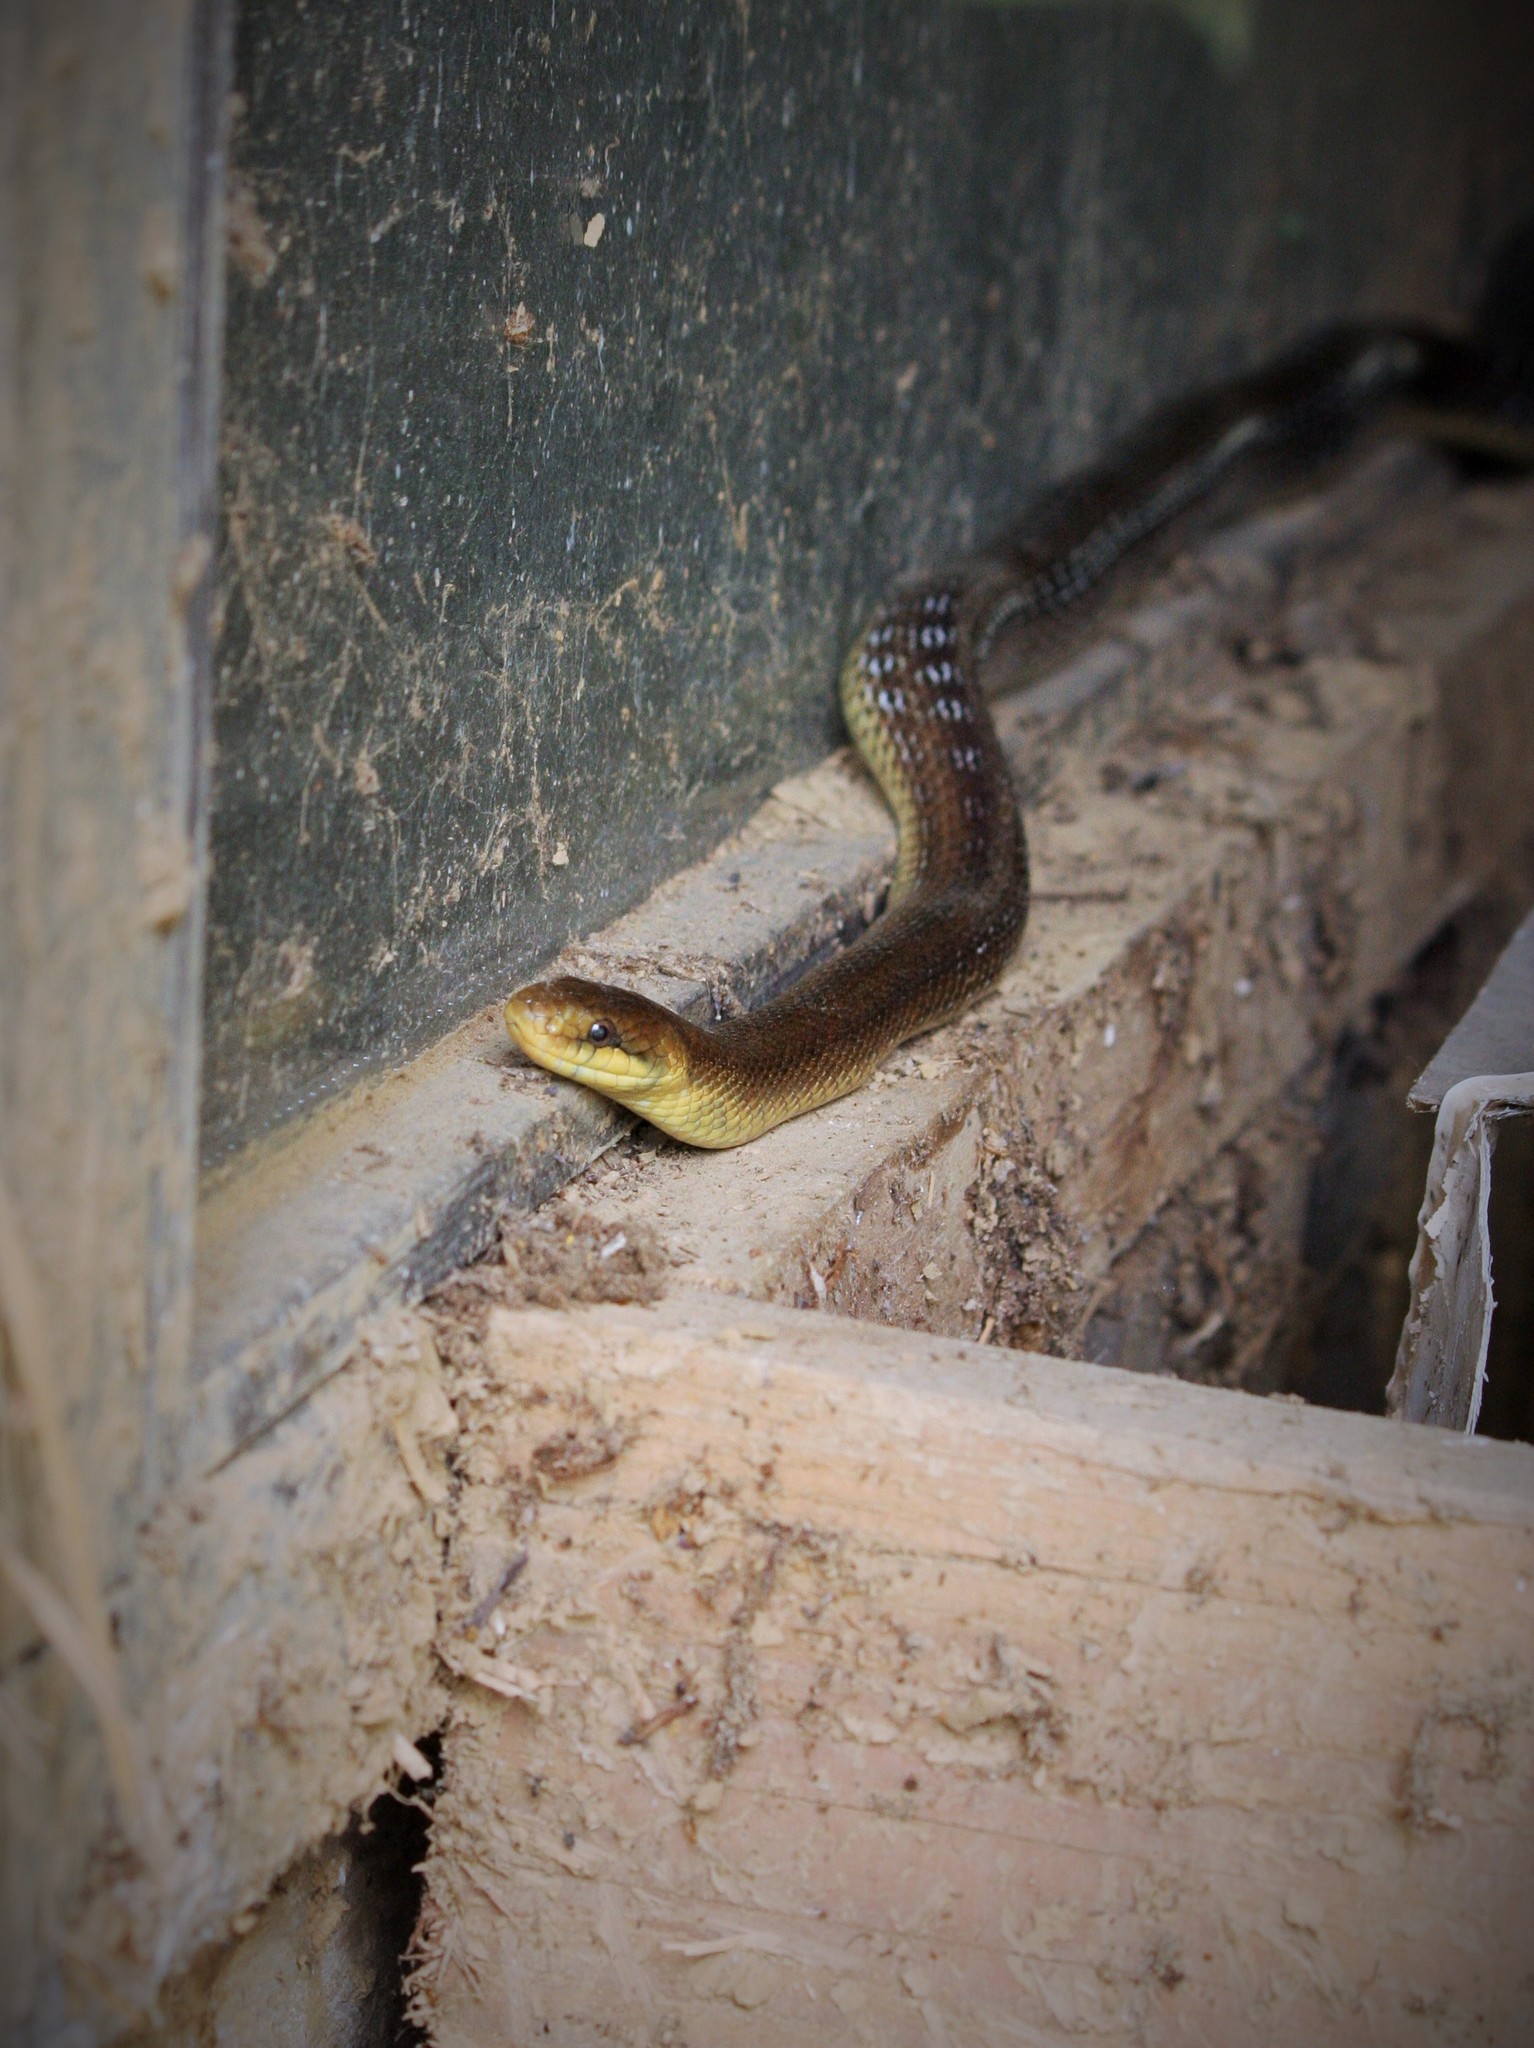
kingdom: Animalia
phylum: Chordata
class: Squamata
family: Colubridae
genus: Zamenis
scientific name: Zamenis longissimus
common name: Aesculapean snake
